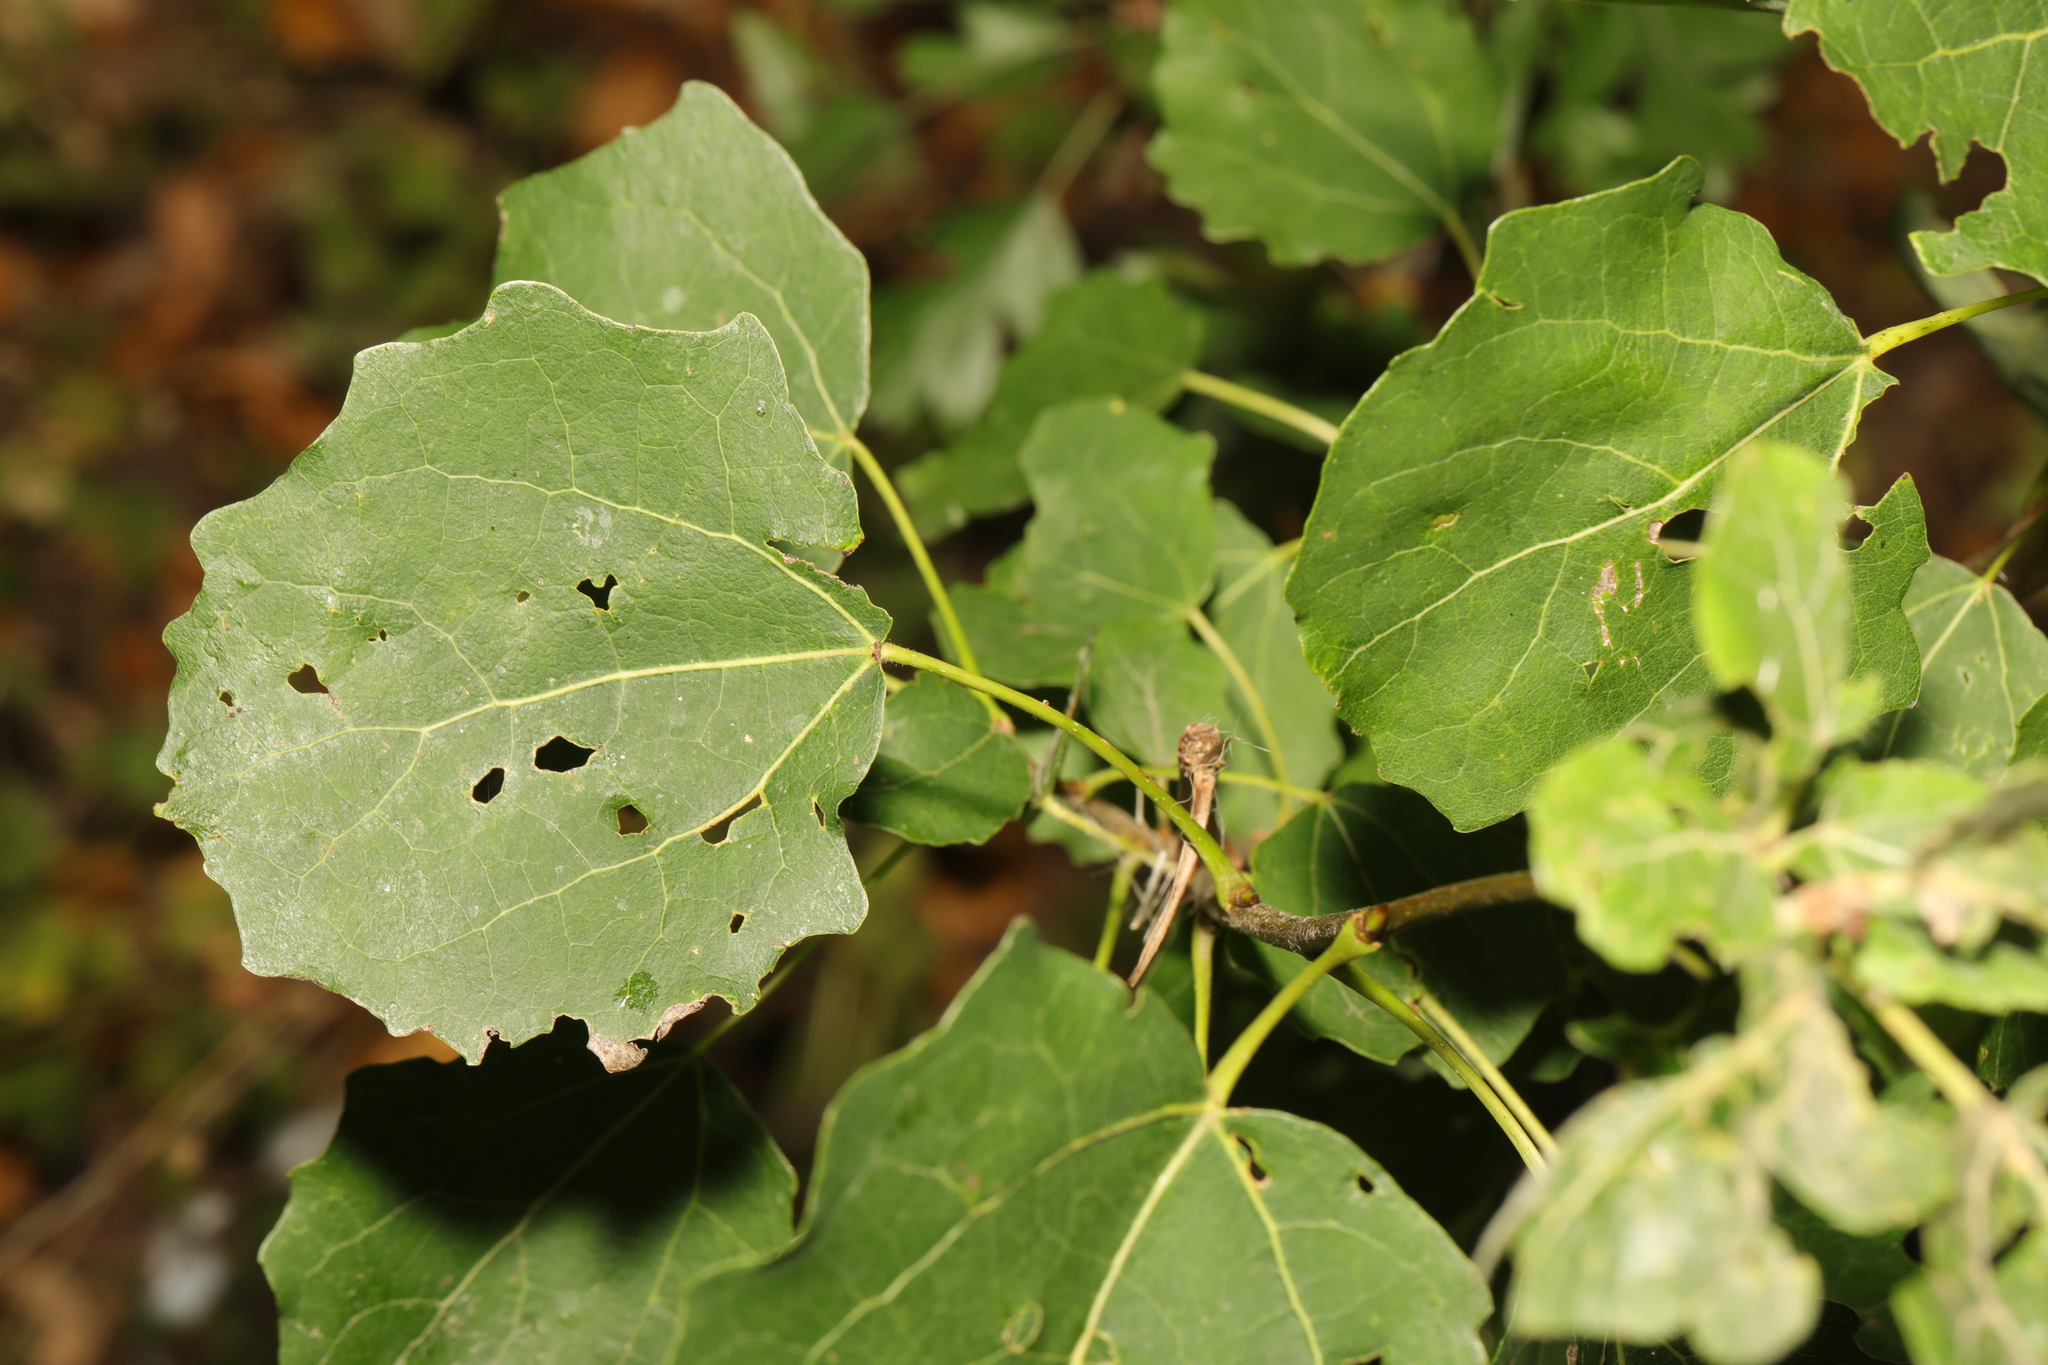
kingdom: Plantae
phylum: Tracheophyta
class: Magnoliopsida
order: Malpighiales
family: Salicaceae
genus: Populus
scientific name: Populus tremula
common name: European aspen
